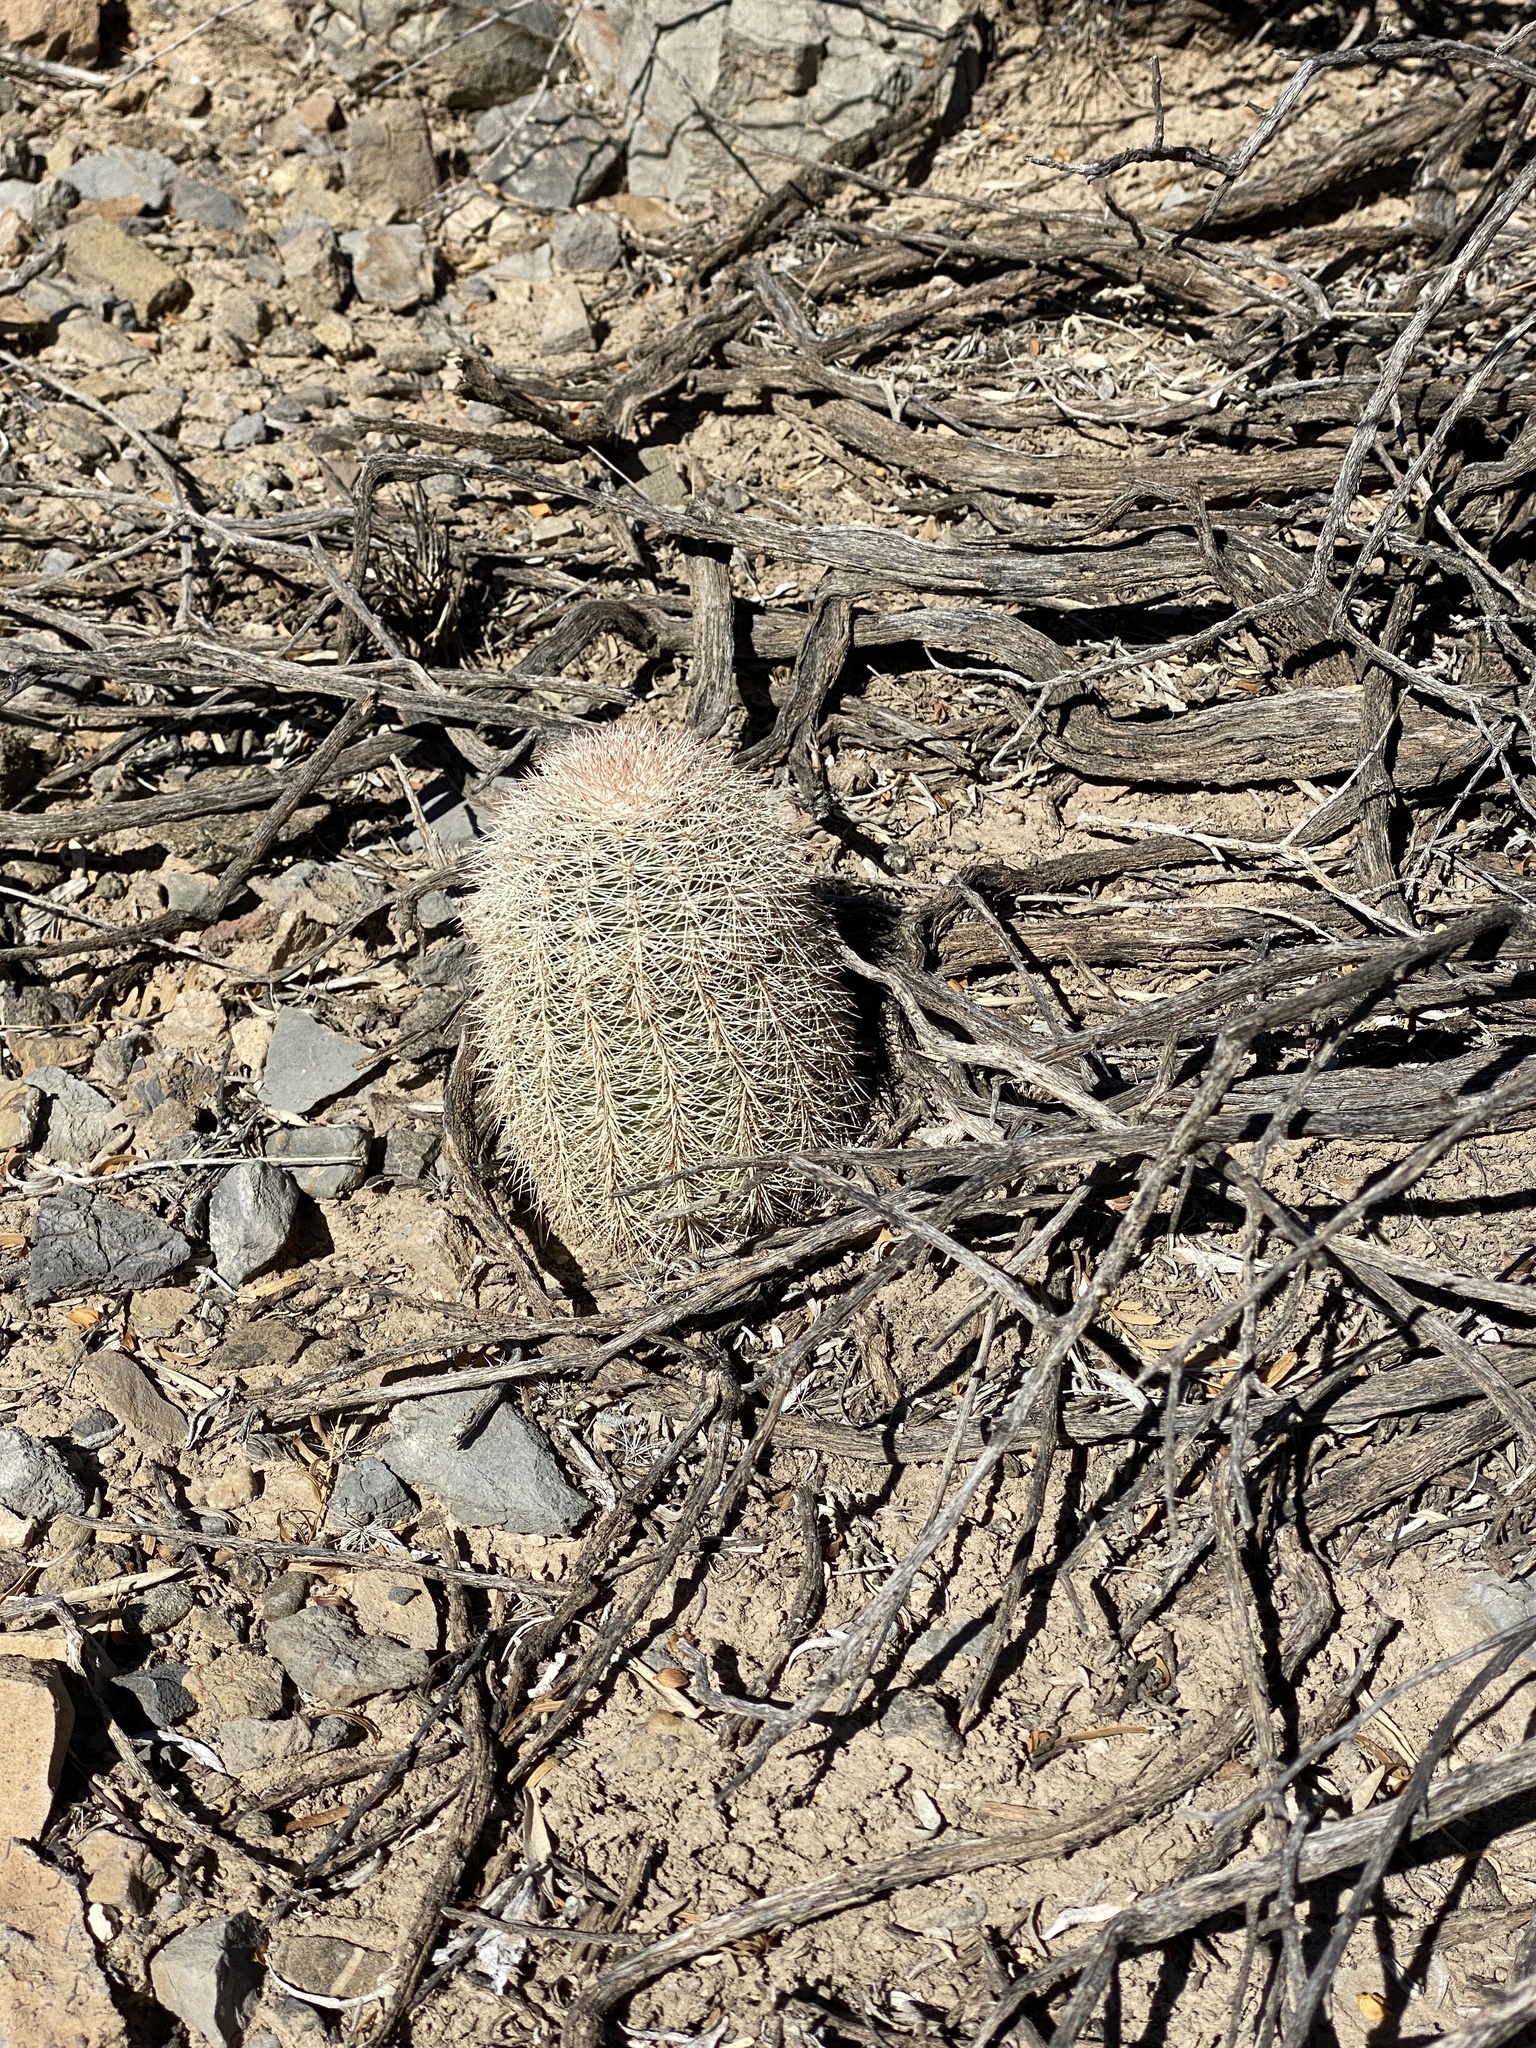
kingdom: Plantae
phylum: Tracheophyta
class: Magnoliopsida
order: Caryophyllales
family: Cactaceae
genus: Echinocereus
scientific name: Echinocereus dasyacanthus
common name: Spiny hedgehog cactus
